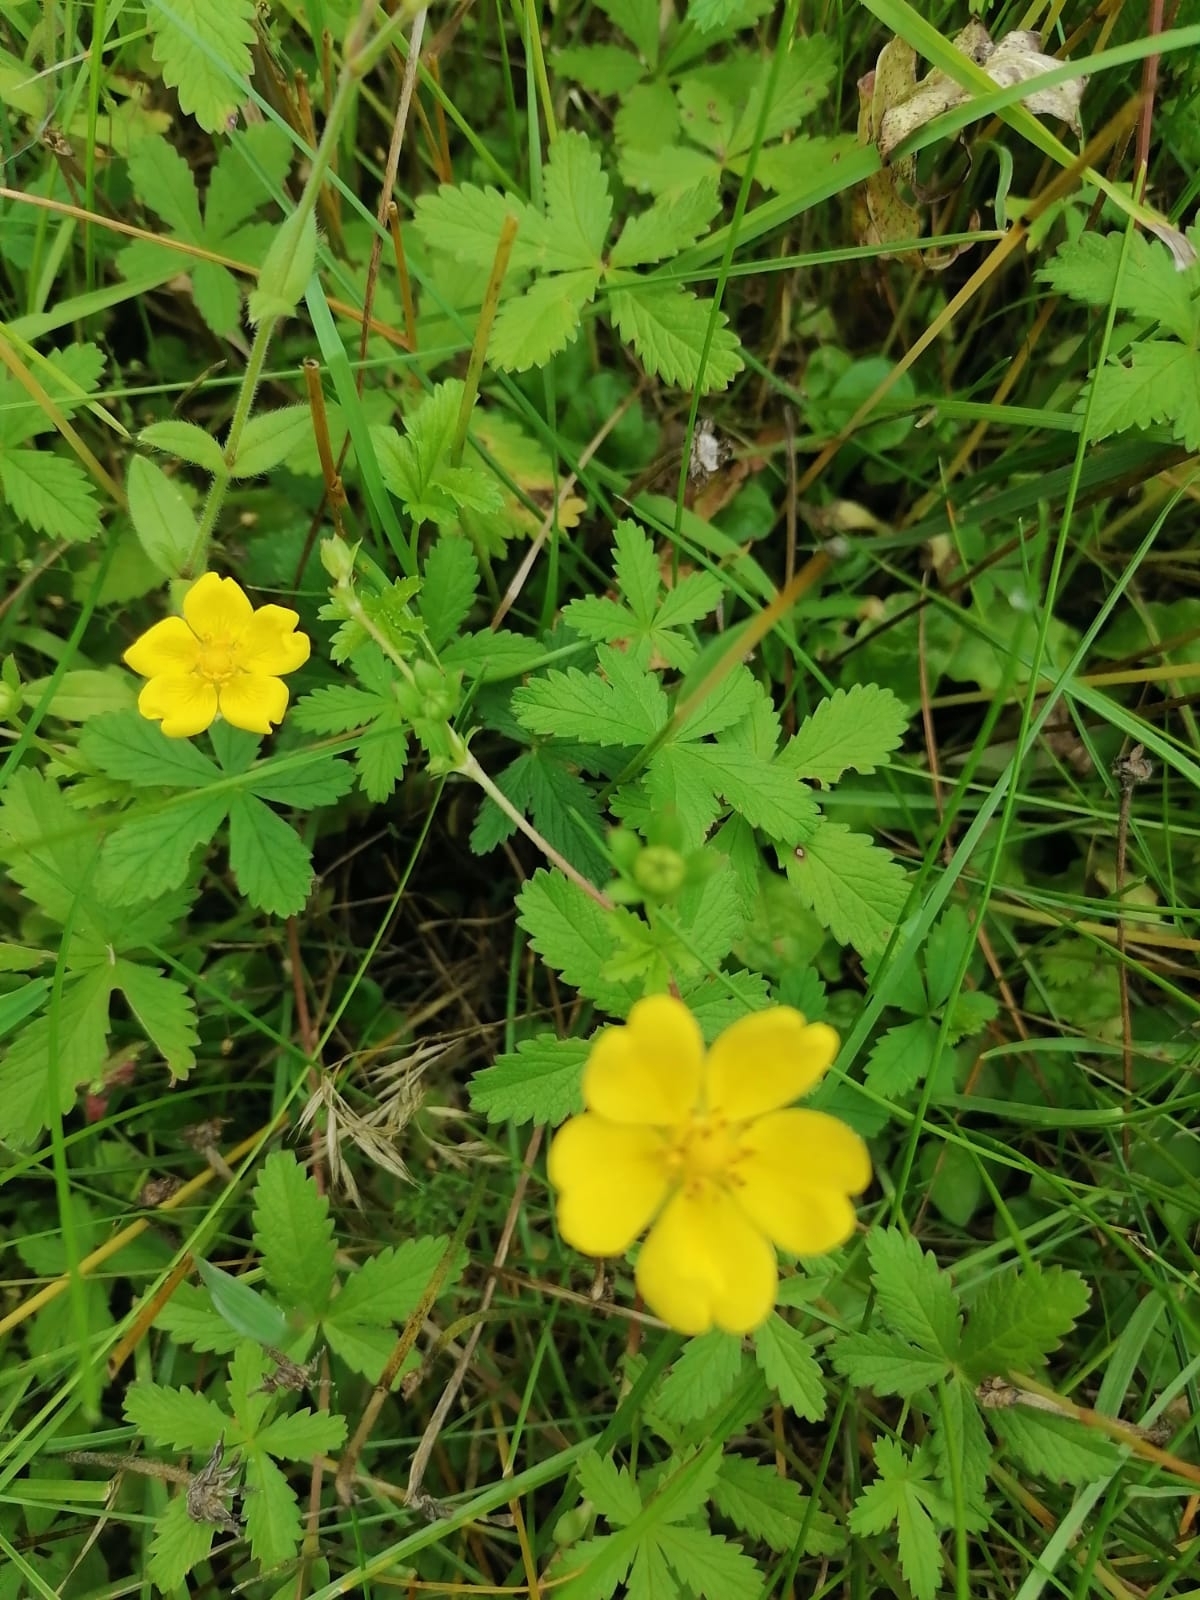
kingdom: Plantae
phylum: Tracheophyta
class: Magnoliopsida
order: Rosales
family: Rosaceae
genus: Potentilla
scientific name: Potentilla reptans
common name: Creeping cinquefoil
